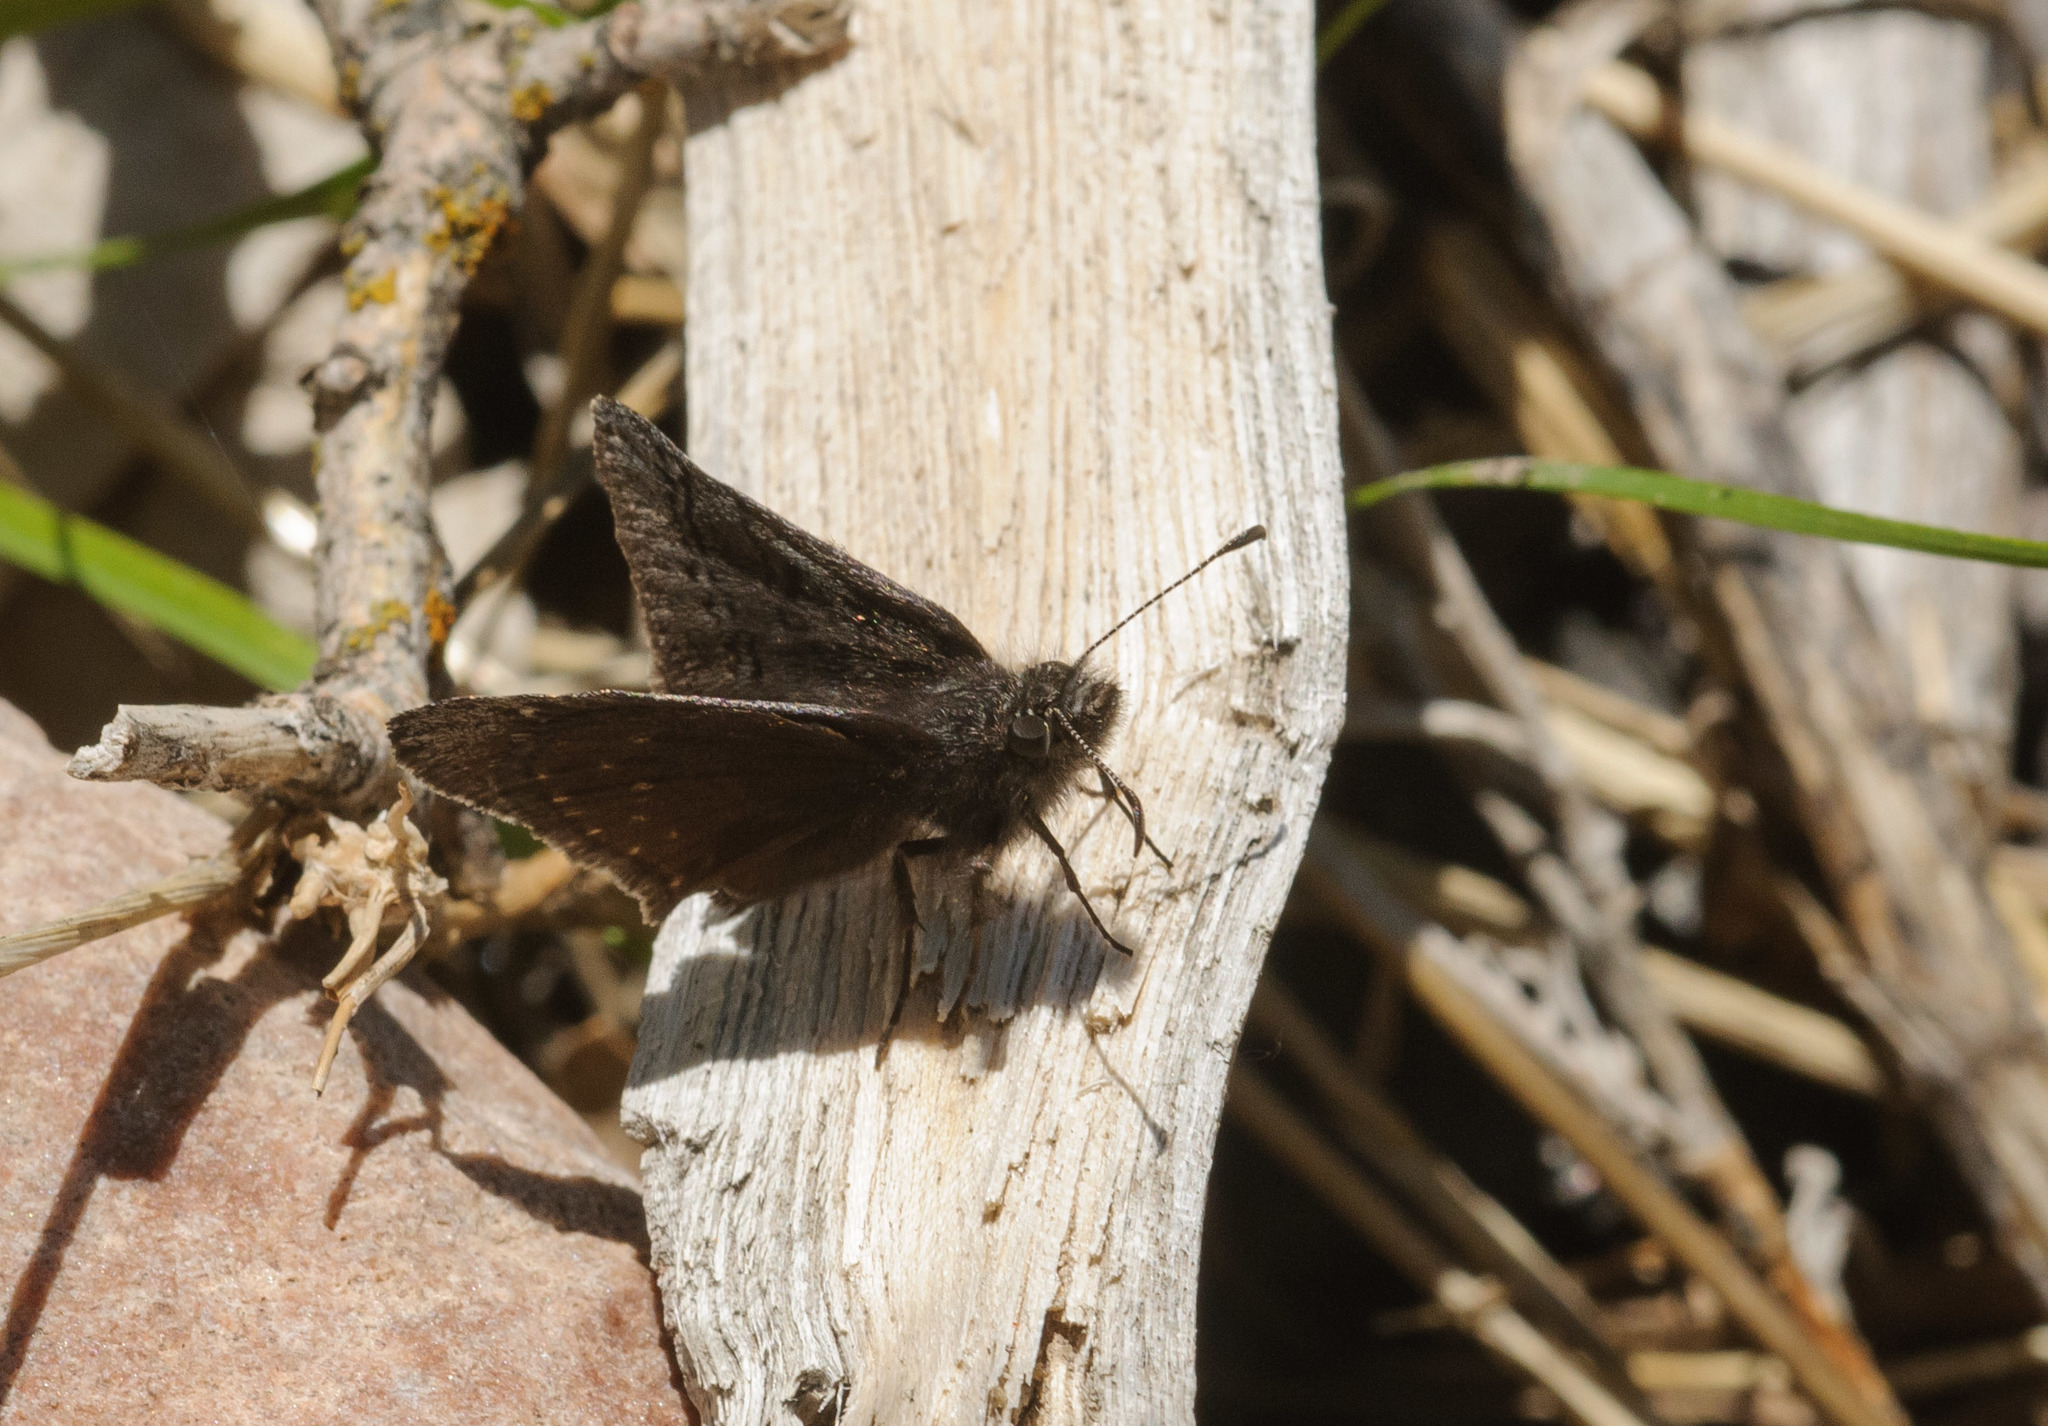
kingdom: Animalia
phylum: Arthropoda
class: Insecta
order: Lepidoptera
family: Hesperiidae
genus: Erynnis
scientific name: Erynnis brizo
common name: Sleepy duskywing
